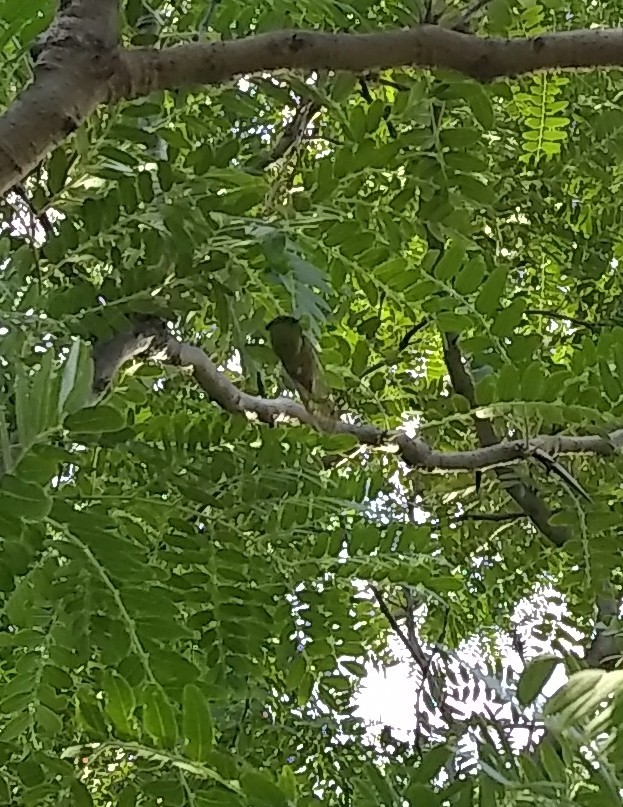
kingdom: Animalia
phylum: Arthropoda
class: Insecta
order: Hemiptera
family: Cicadidae
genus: Neotibicen
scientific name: Neotibicen superbus
